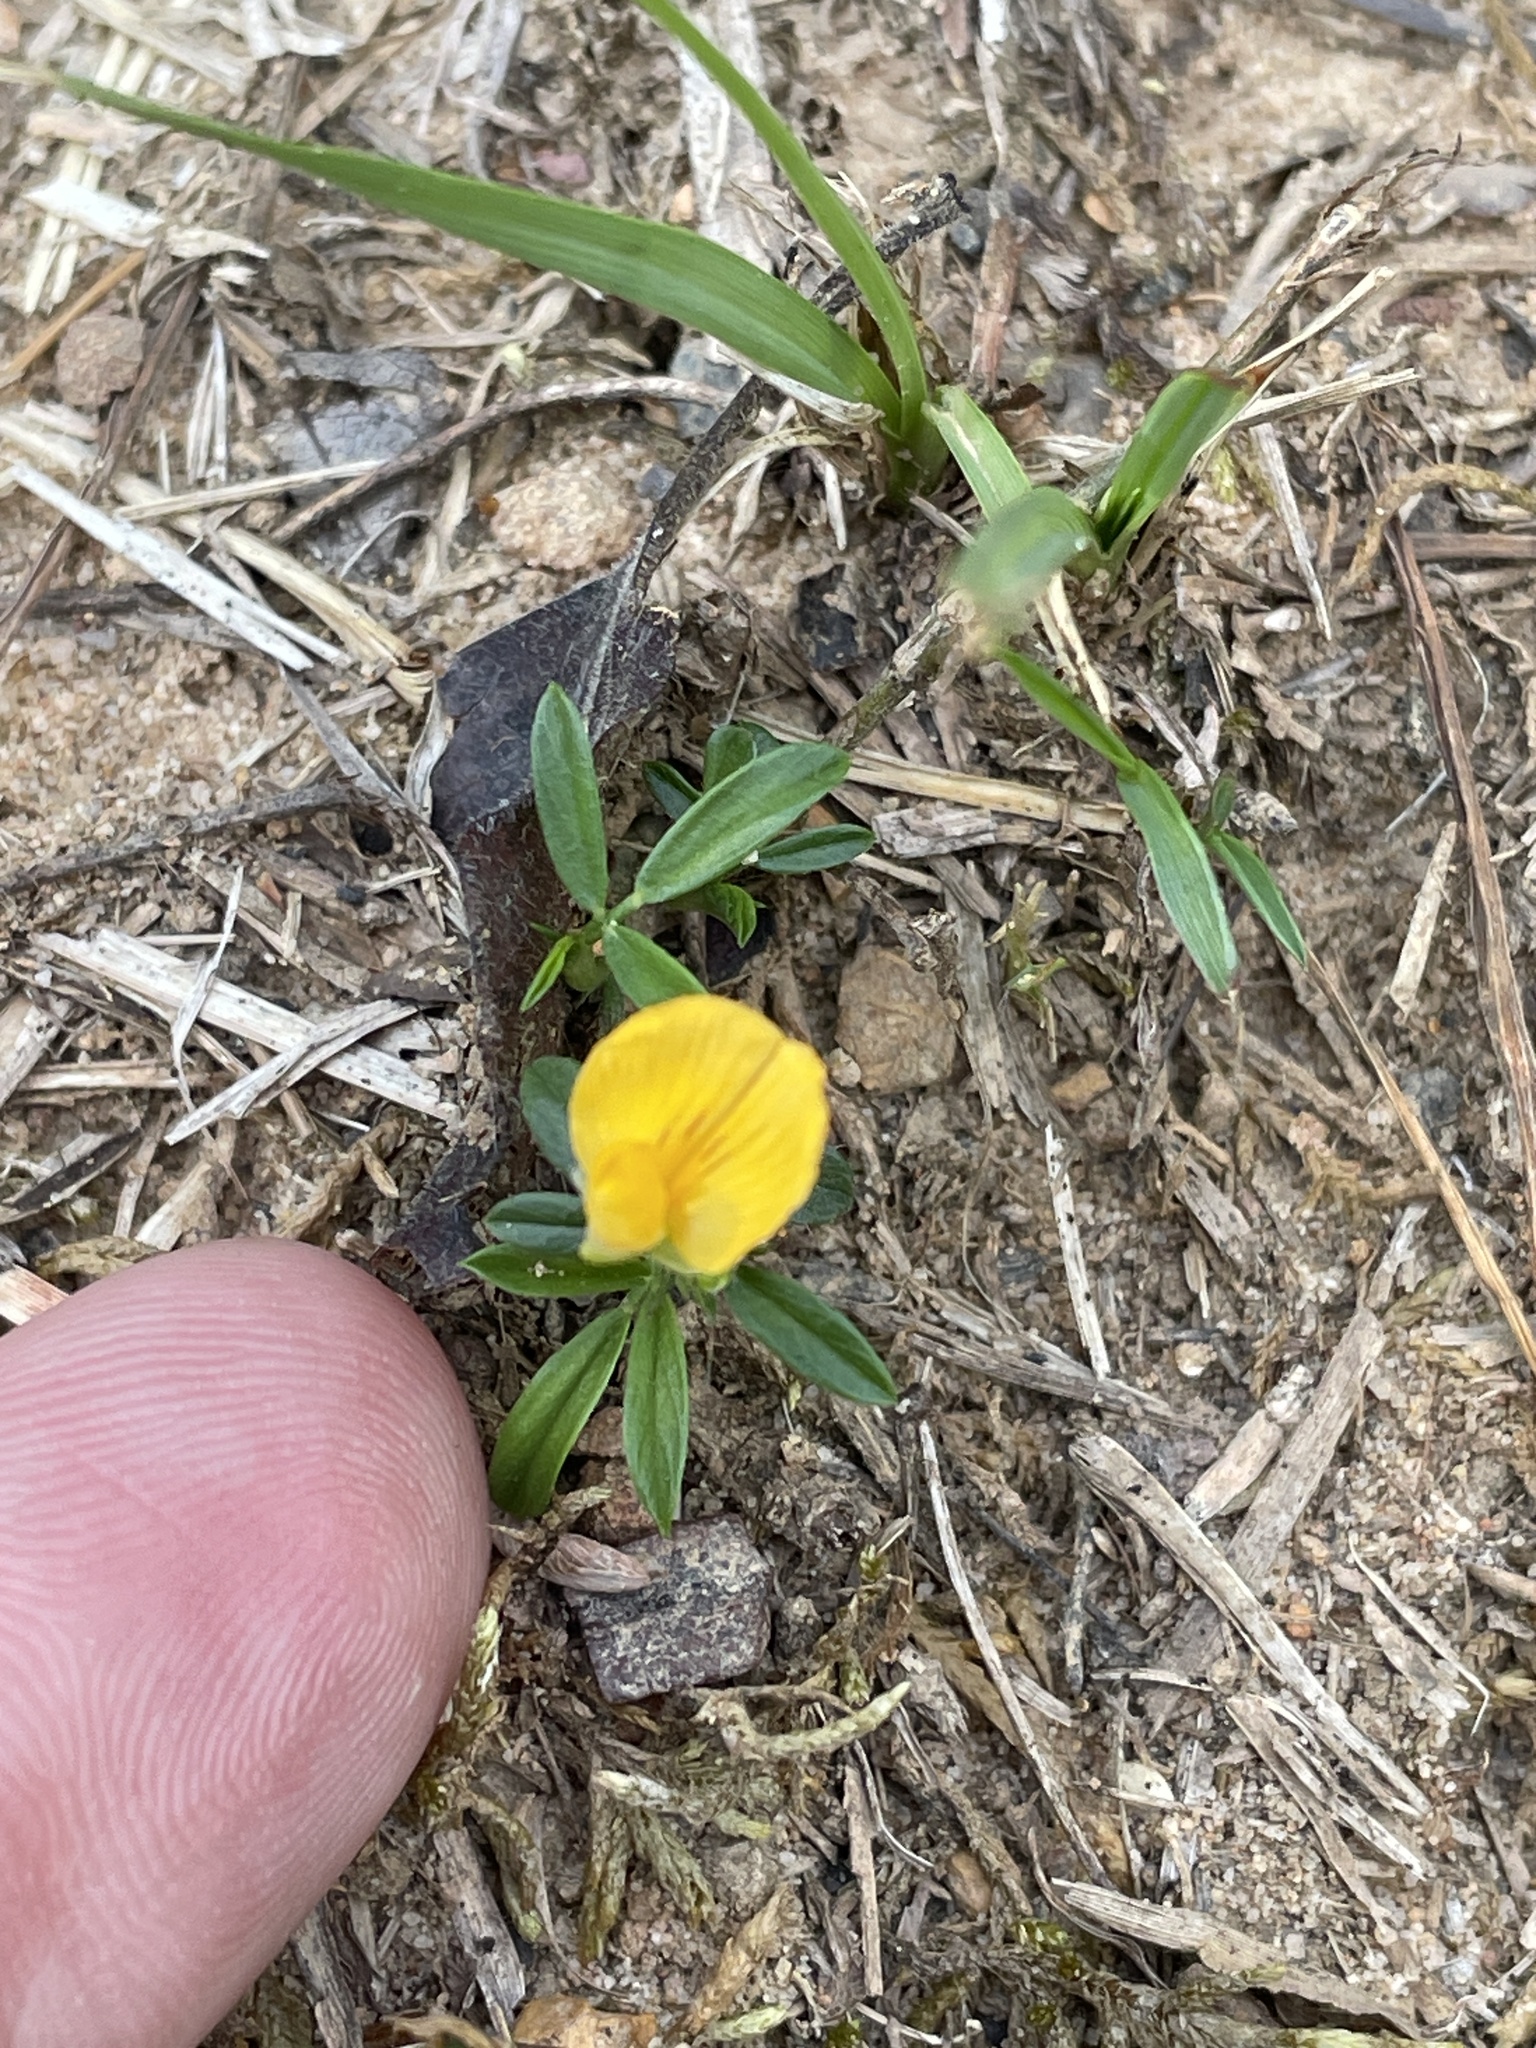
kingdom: Plantae
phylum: Tracheophyta
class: Magnoliopsida
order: Fabales
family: Fabaceae
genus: Stylosanthes
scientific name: Stylosanthes biflora
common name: Two-flower pencil-flower
